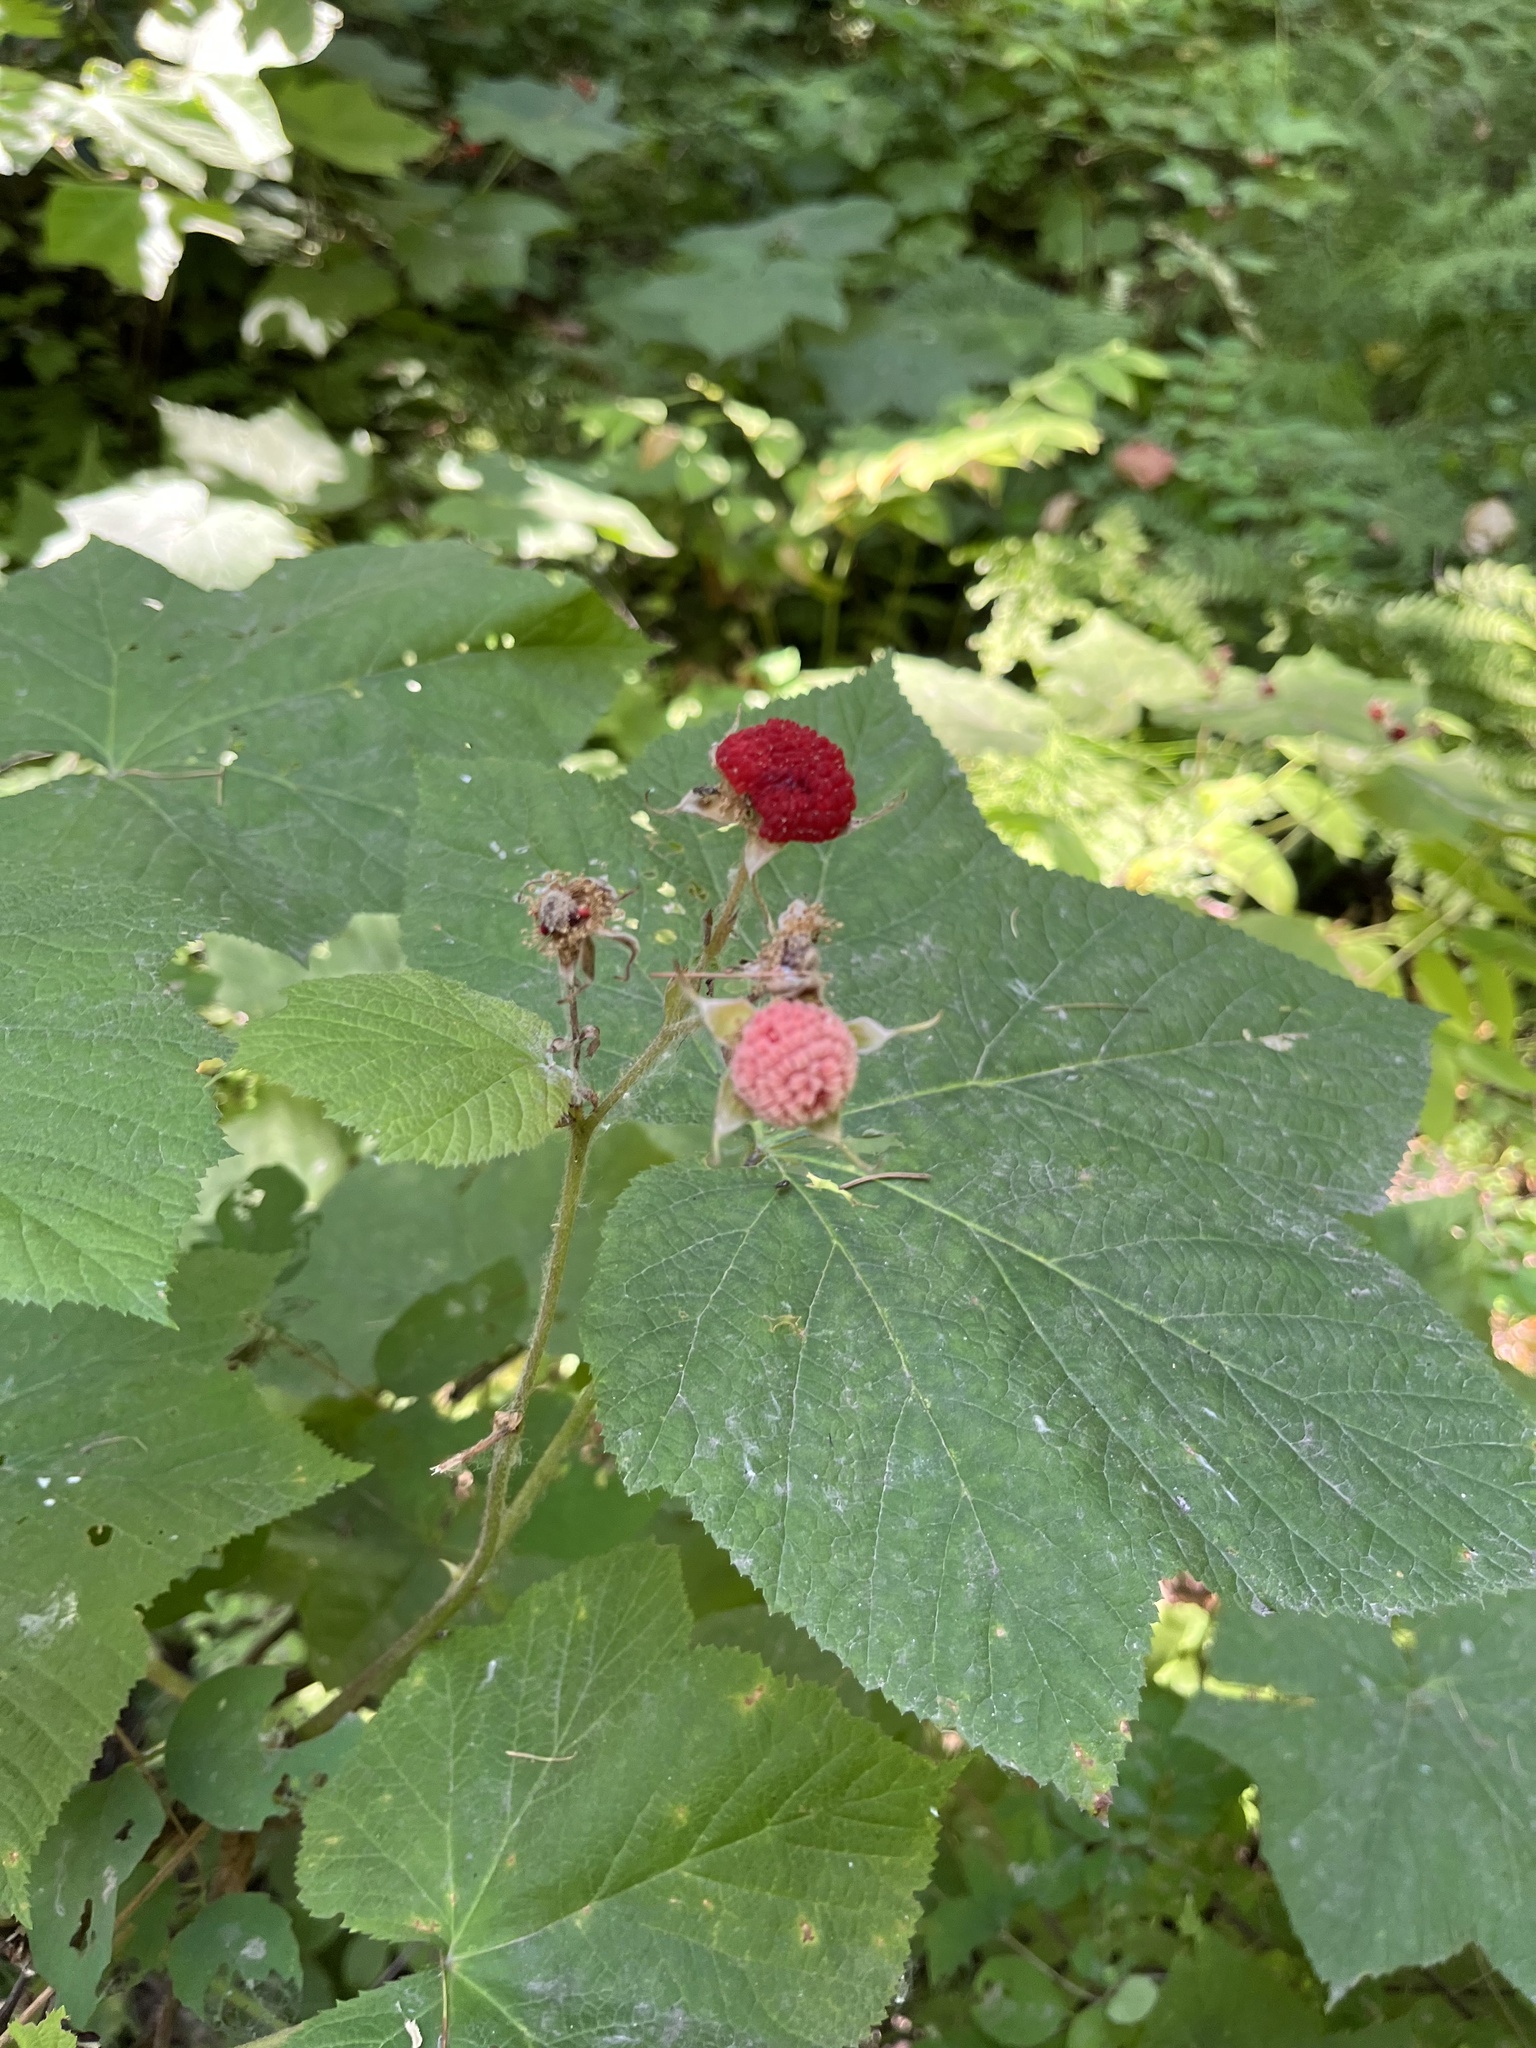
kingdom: Plantae
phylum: Tracheophyta
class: Magnoliopsida
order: Rosales
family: Rosaceae
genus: Rubus
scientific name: Rubus parviflorus
